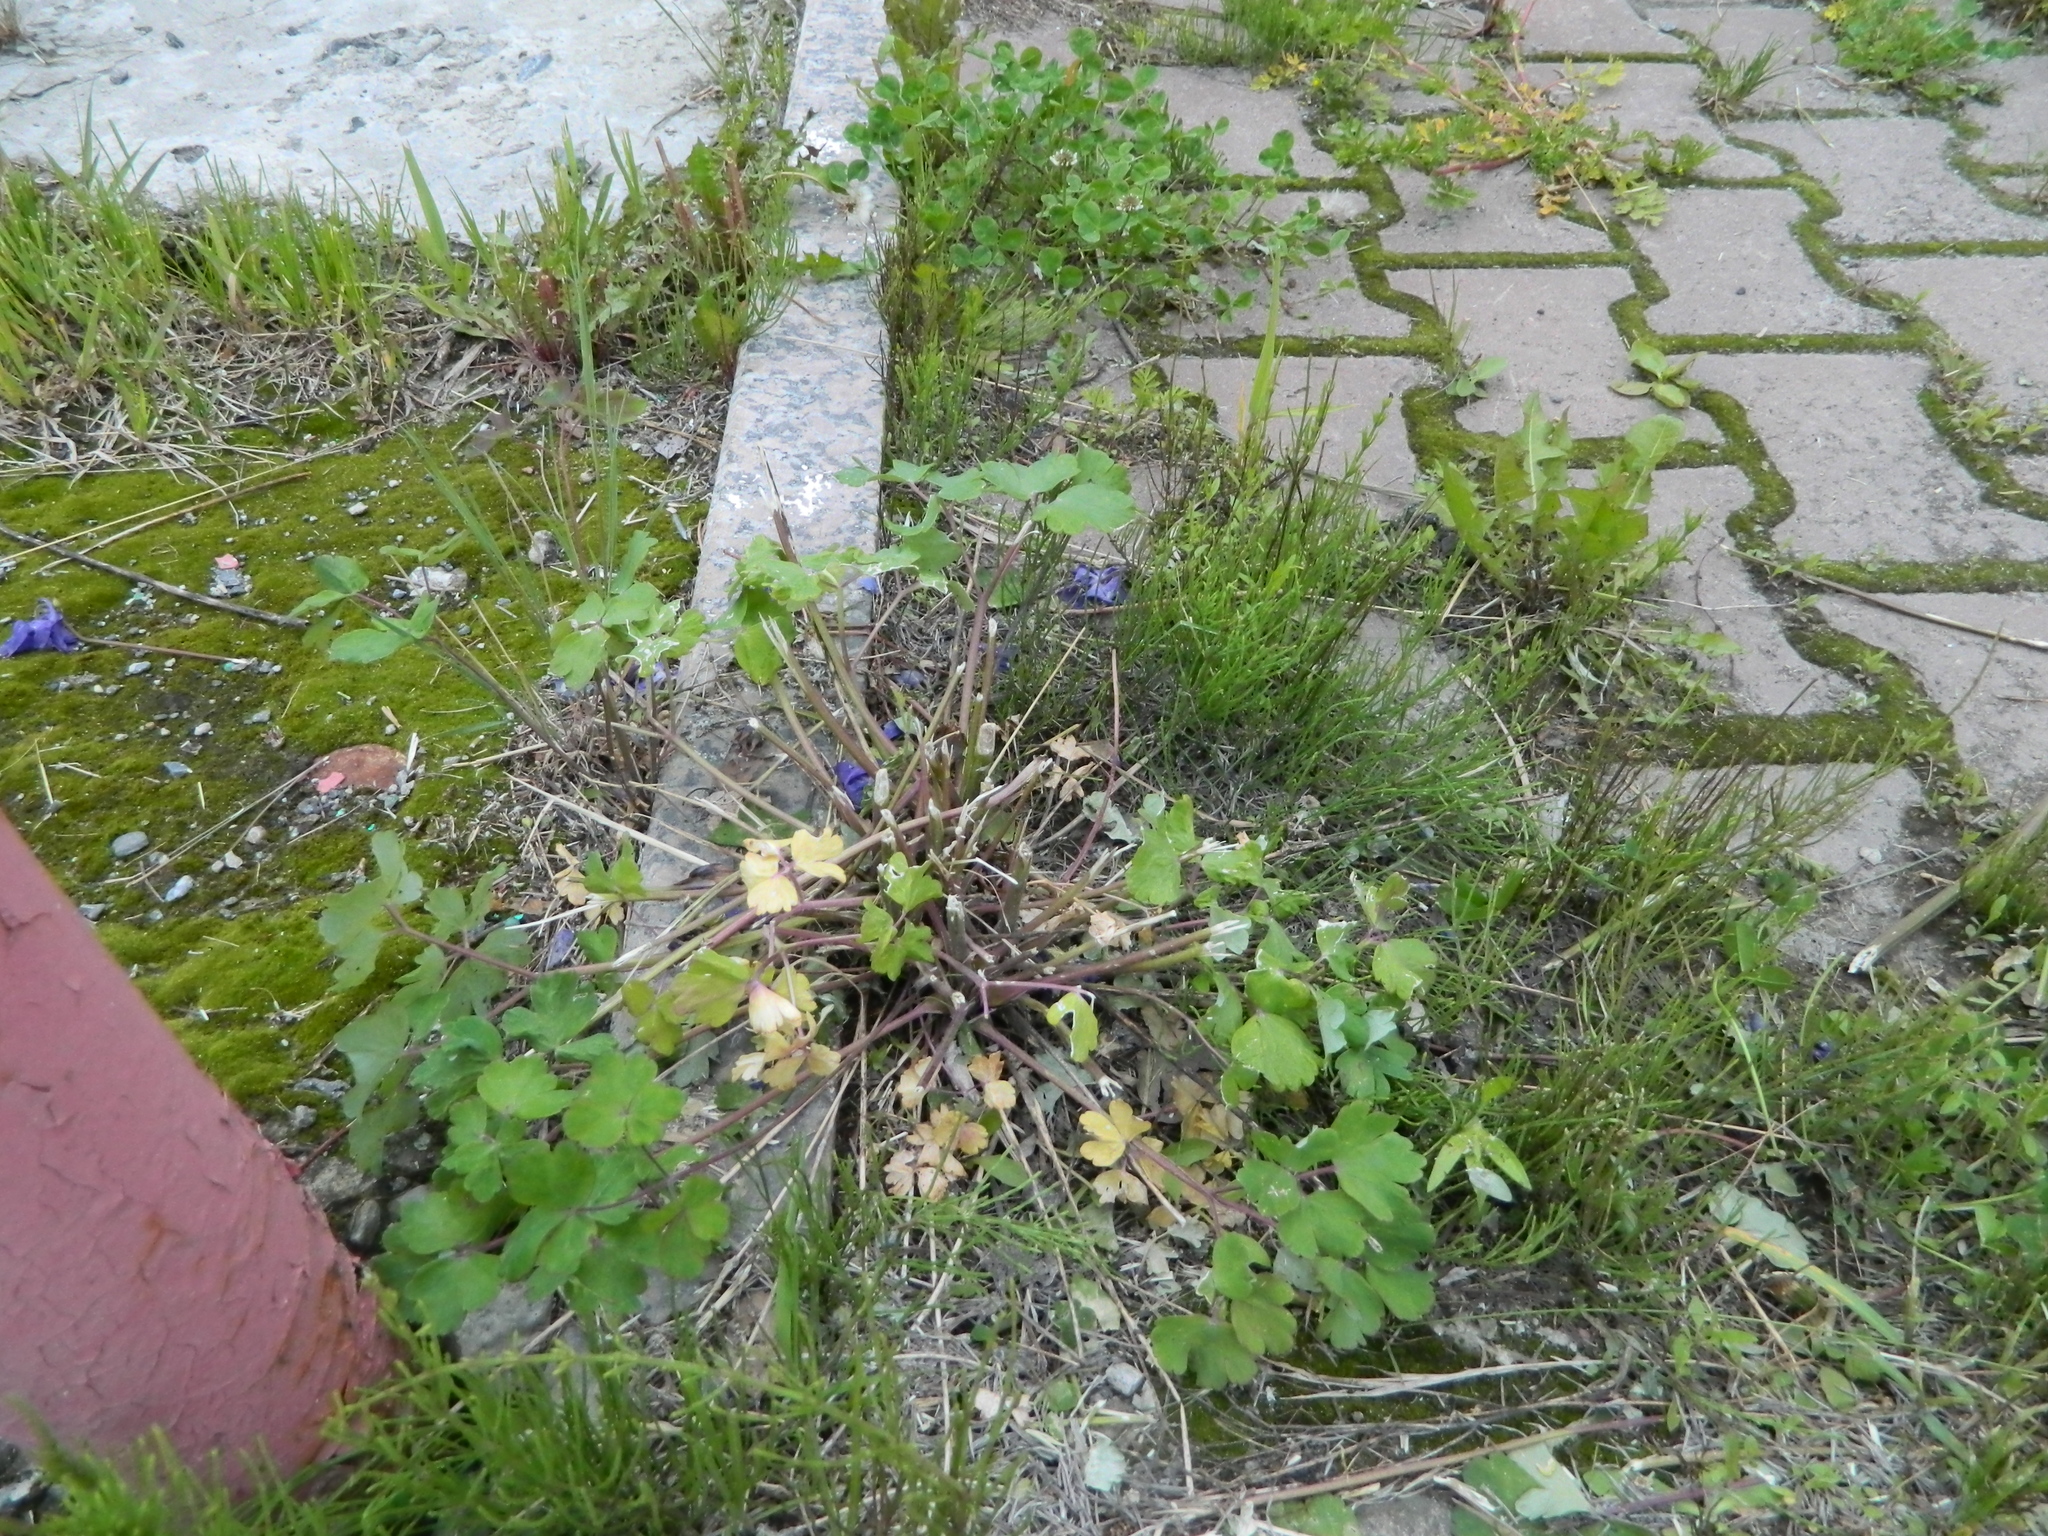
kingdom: Plantae
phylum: Tracheophyta
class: Magnoliopsida
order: Ranunculales
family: Ranunculaceae
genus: Aquilegia
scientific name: Aquilegia vulgaris
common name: Columbine
